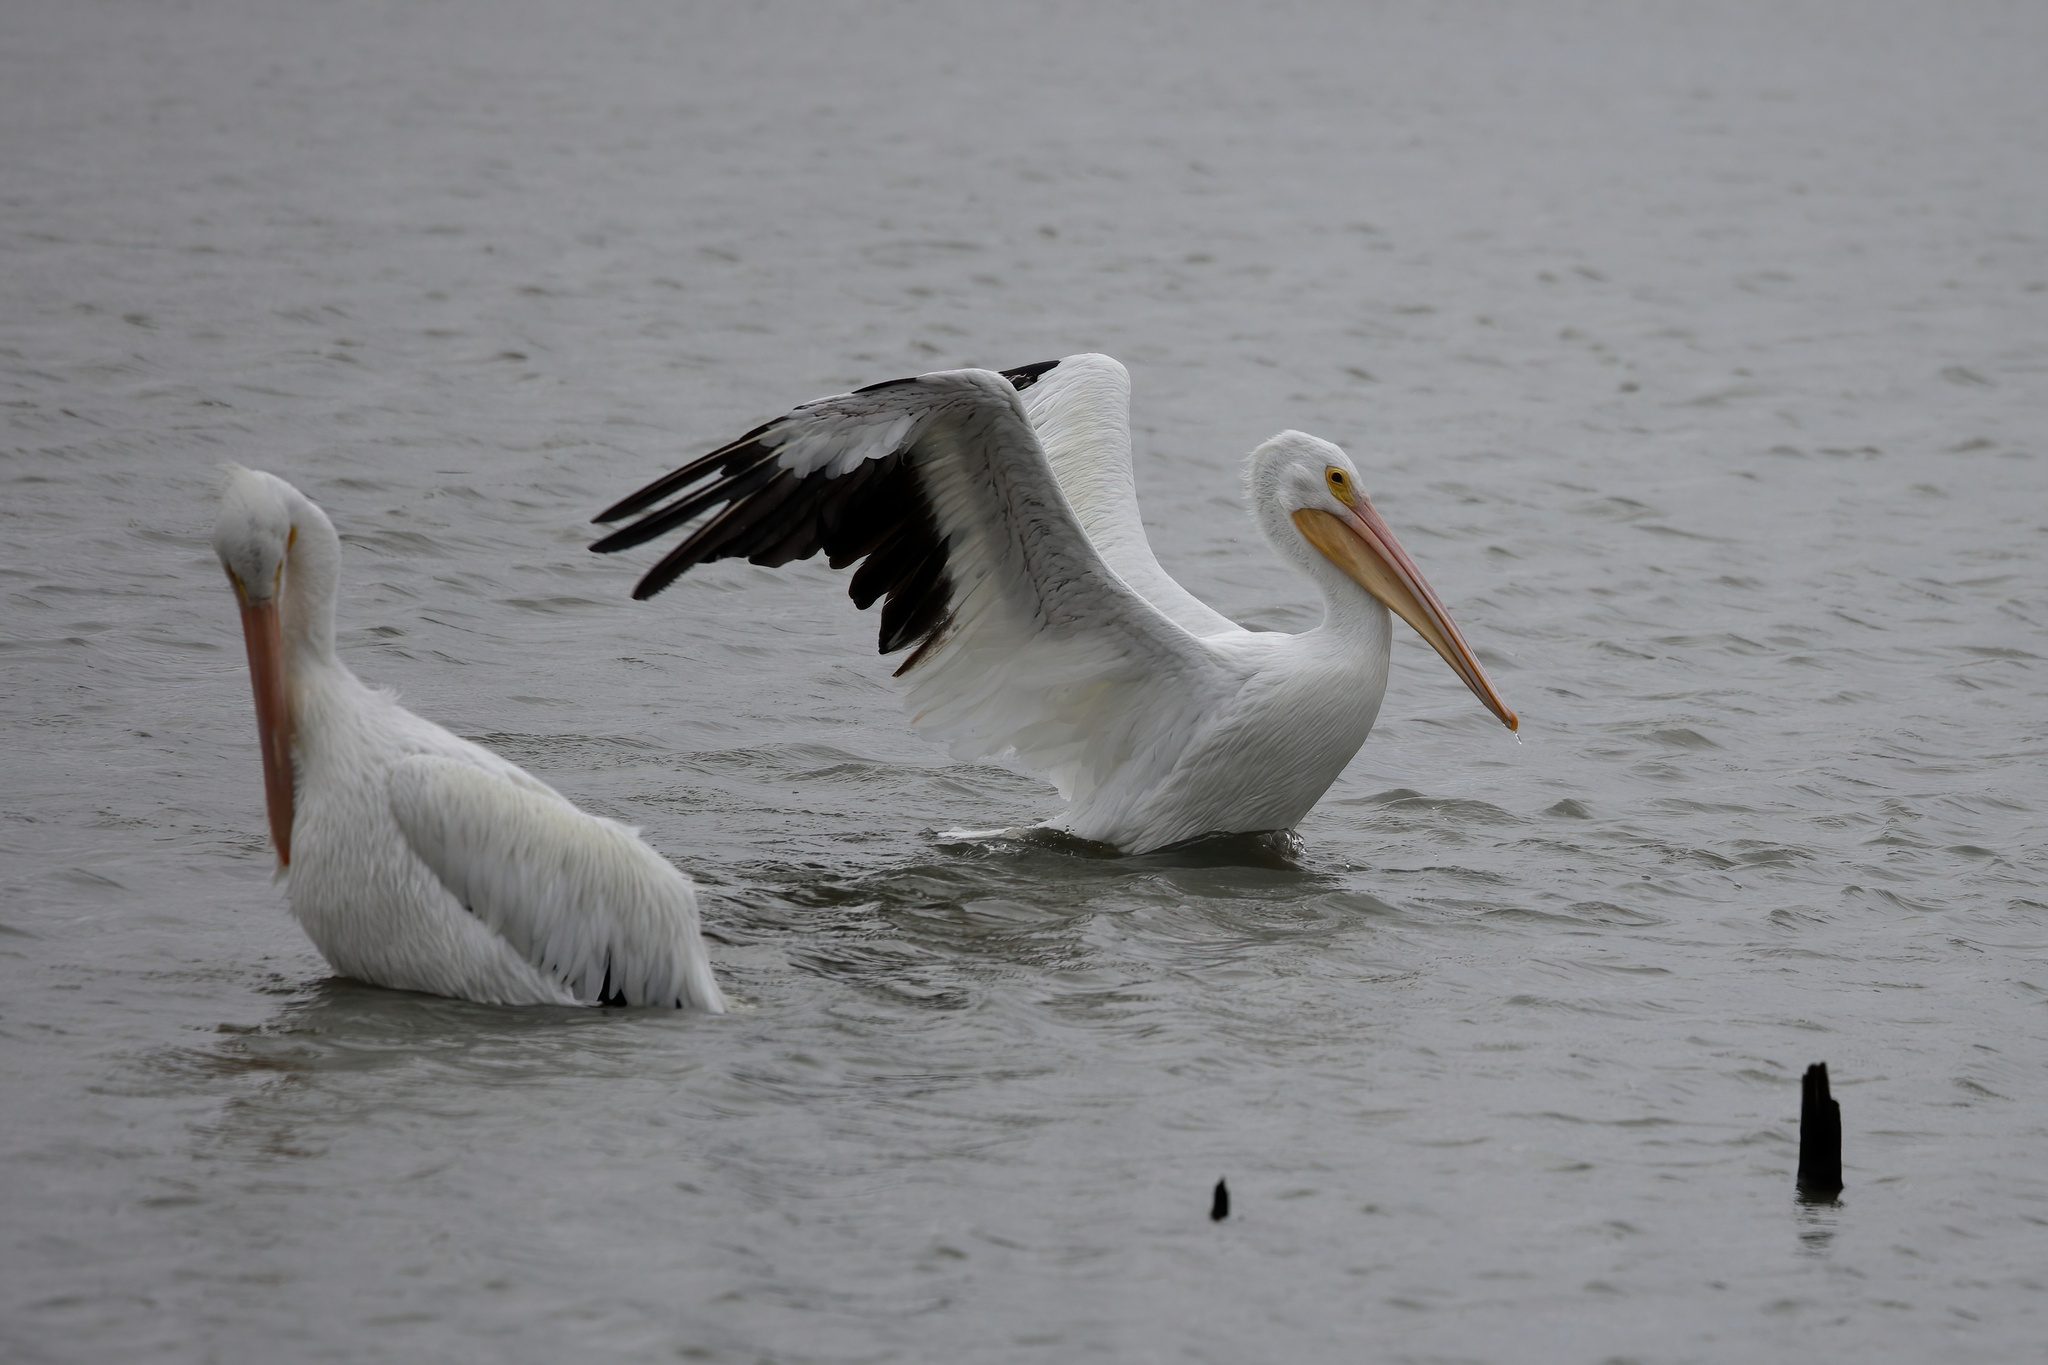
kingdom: Animalia
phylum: Chordata
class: Aves
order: Pelecaniformes
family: Pelecanidae
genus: Pelecanus
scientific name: Pelecanus erythrorhynchos
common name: American white pelican
